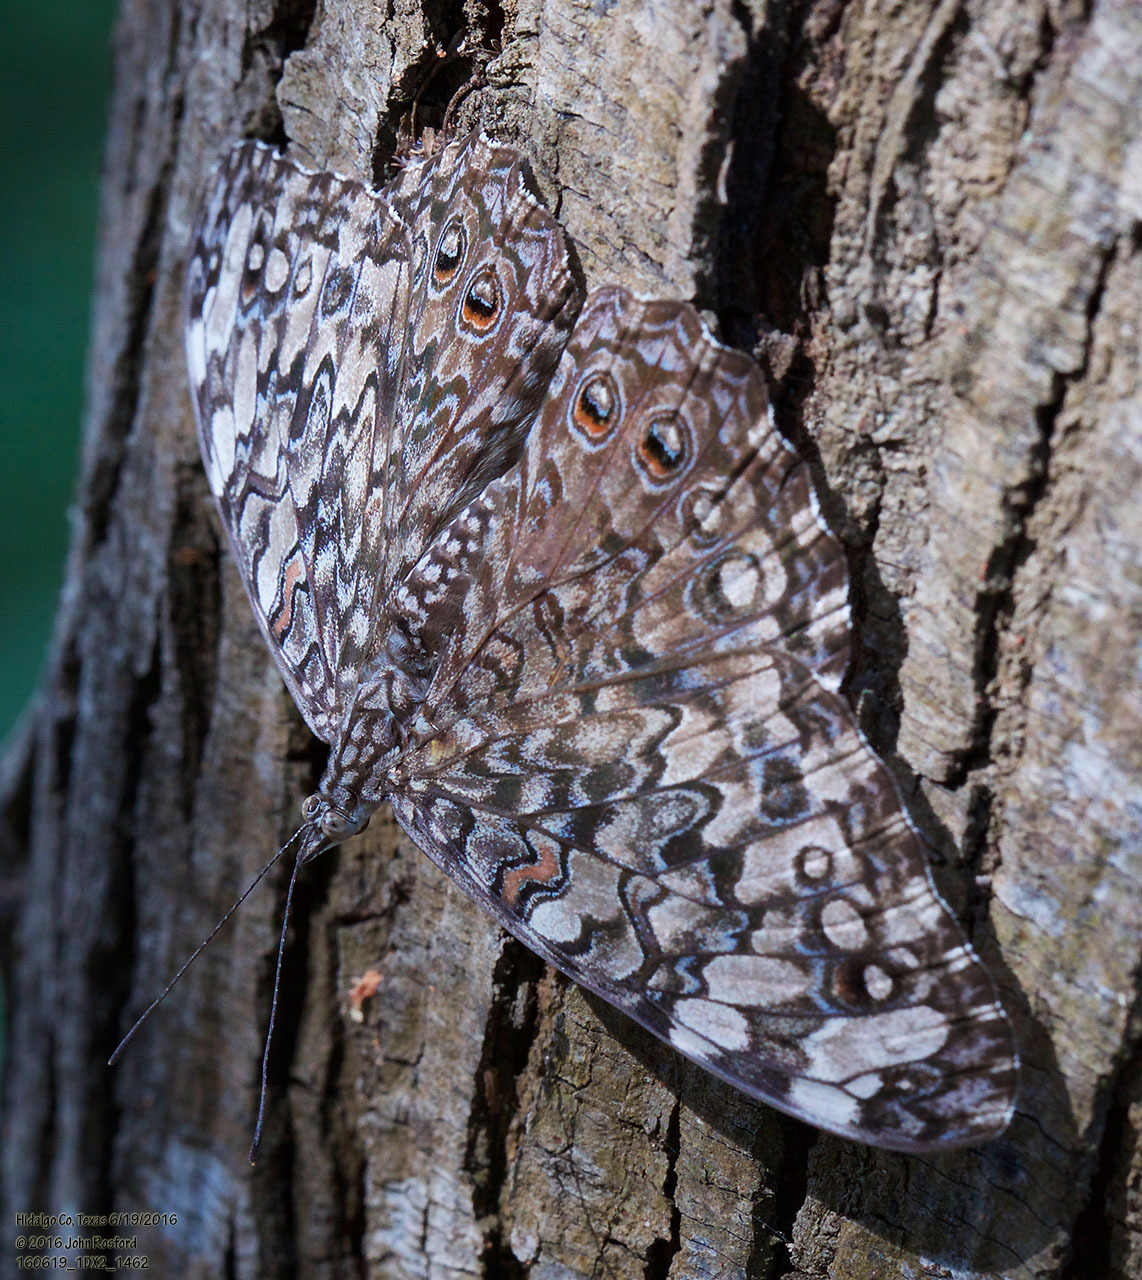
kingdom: Animalia
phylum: Arthropoda
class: Insecta
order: Lepidoptera
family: Nymphalidae
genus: Hamadryas
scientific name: Hamadryas februa
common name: Gray cracker
